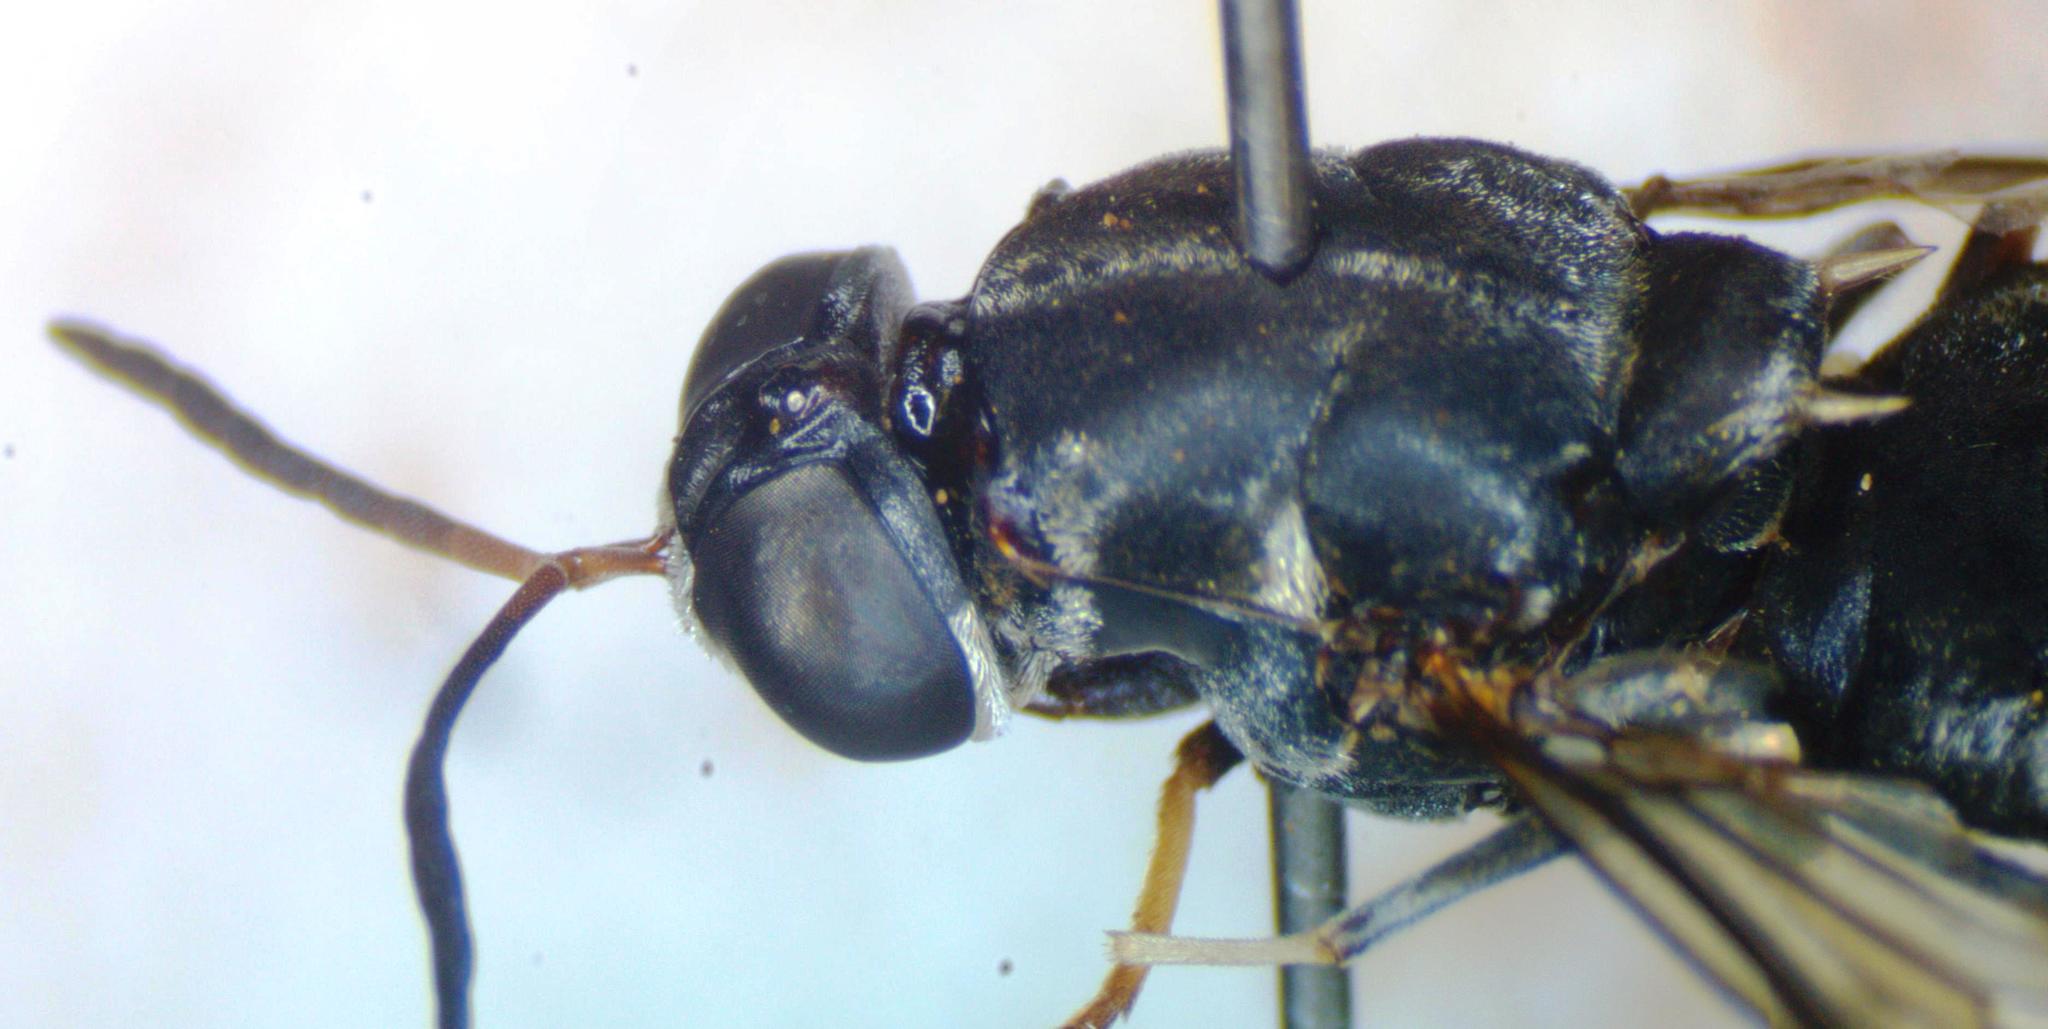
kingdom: Animalia
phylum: Arthropoda
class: Insecta
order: Diptera
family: Stratiomyidae
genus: Cyphomyia
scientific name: Cyphomyia albitarsis
